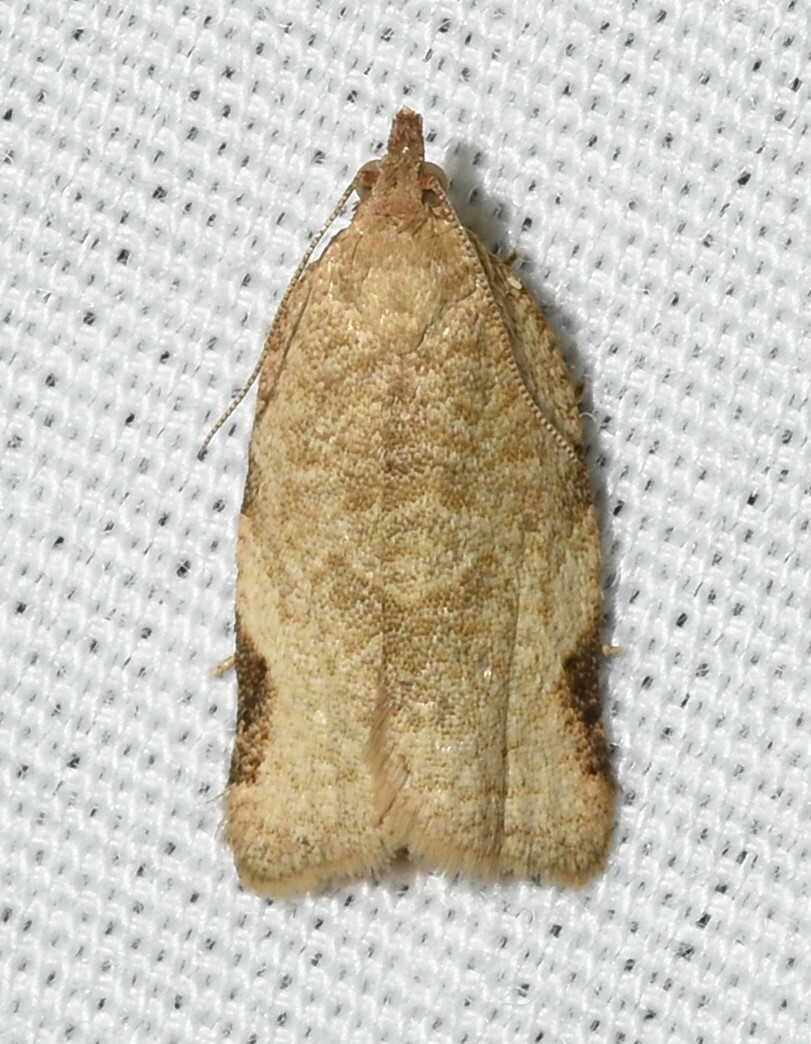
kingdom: Animalia
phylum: Arthropoda
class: Insecta
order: Lepidoptera
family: Tortricidae
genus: Clepsis
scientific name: Clepsis virescana
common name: Greenish apple moth
